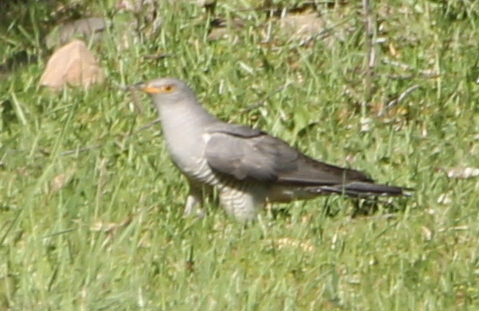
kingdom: Animalia
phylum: Chordata
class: Aves
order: Cuculiformes
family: Cuculidae
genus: Cuculus
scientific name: Cuculus canorus
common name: Common cuckoo
